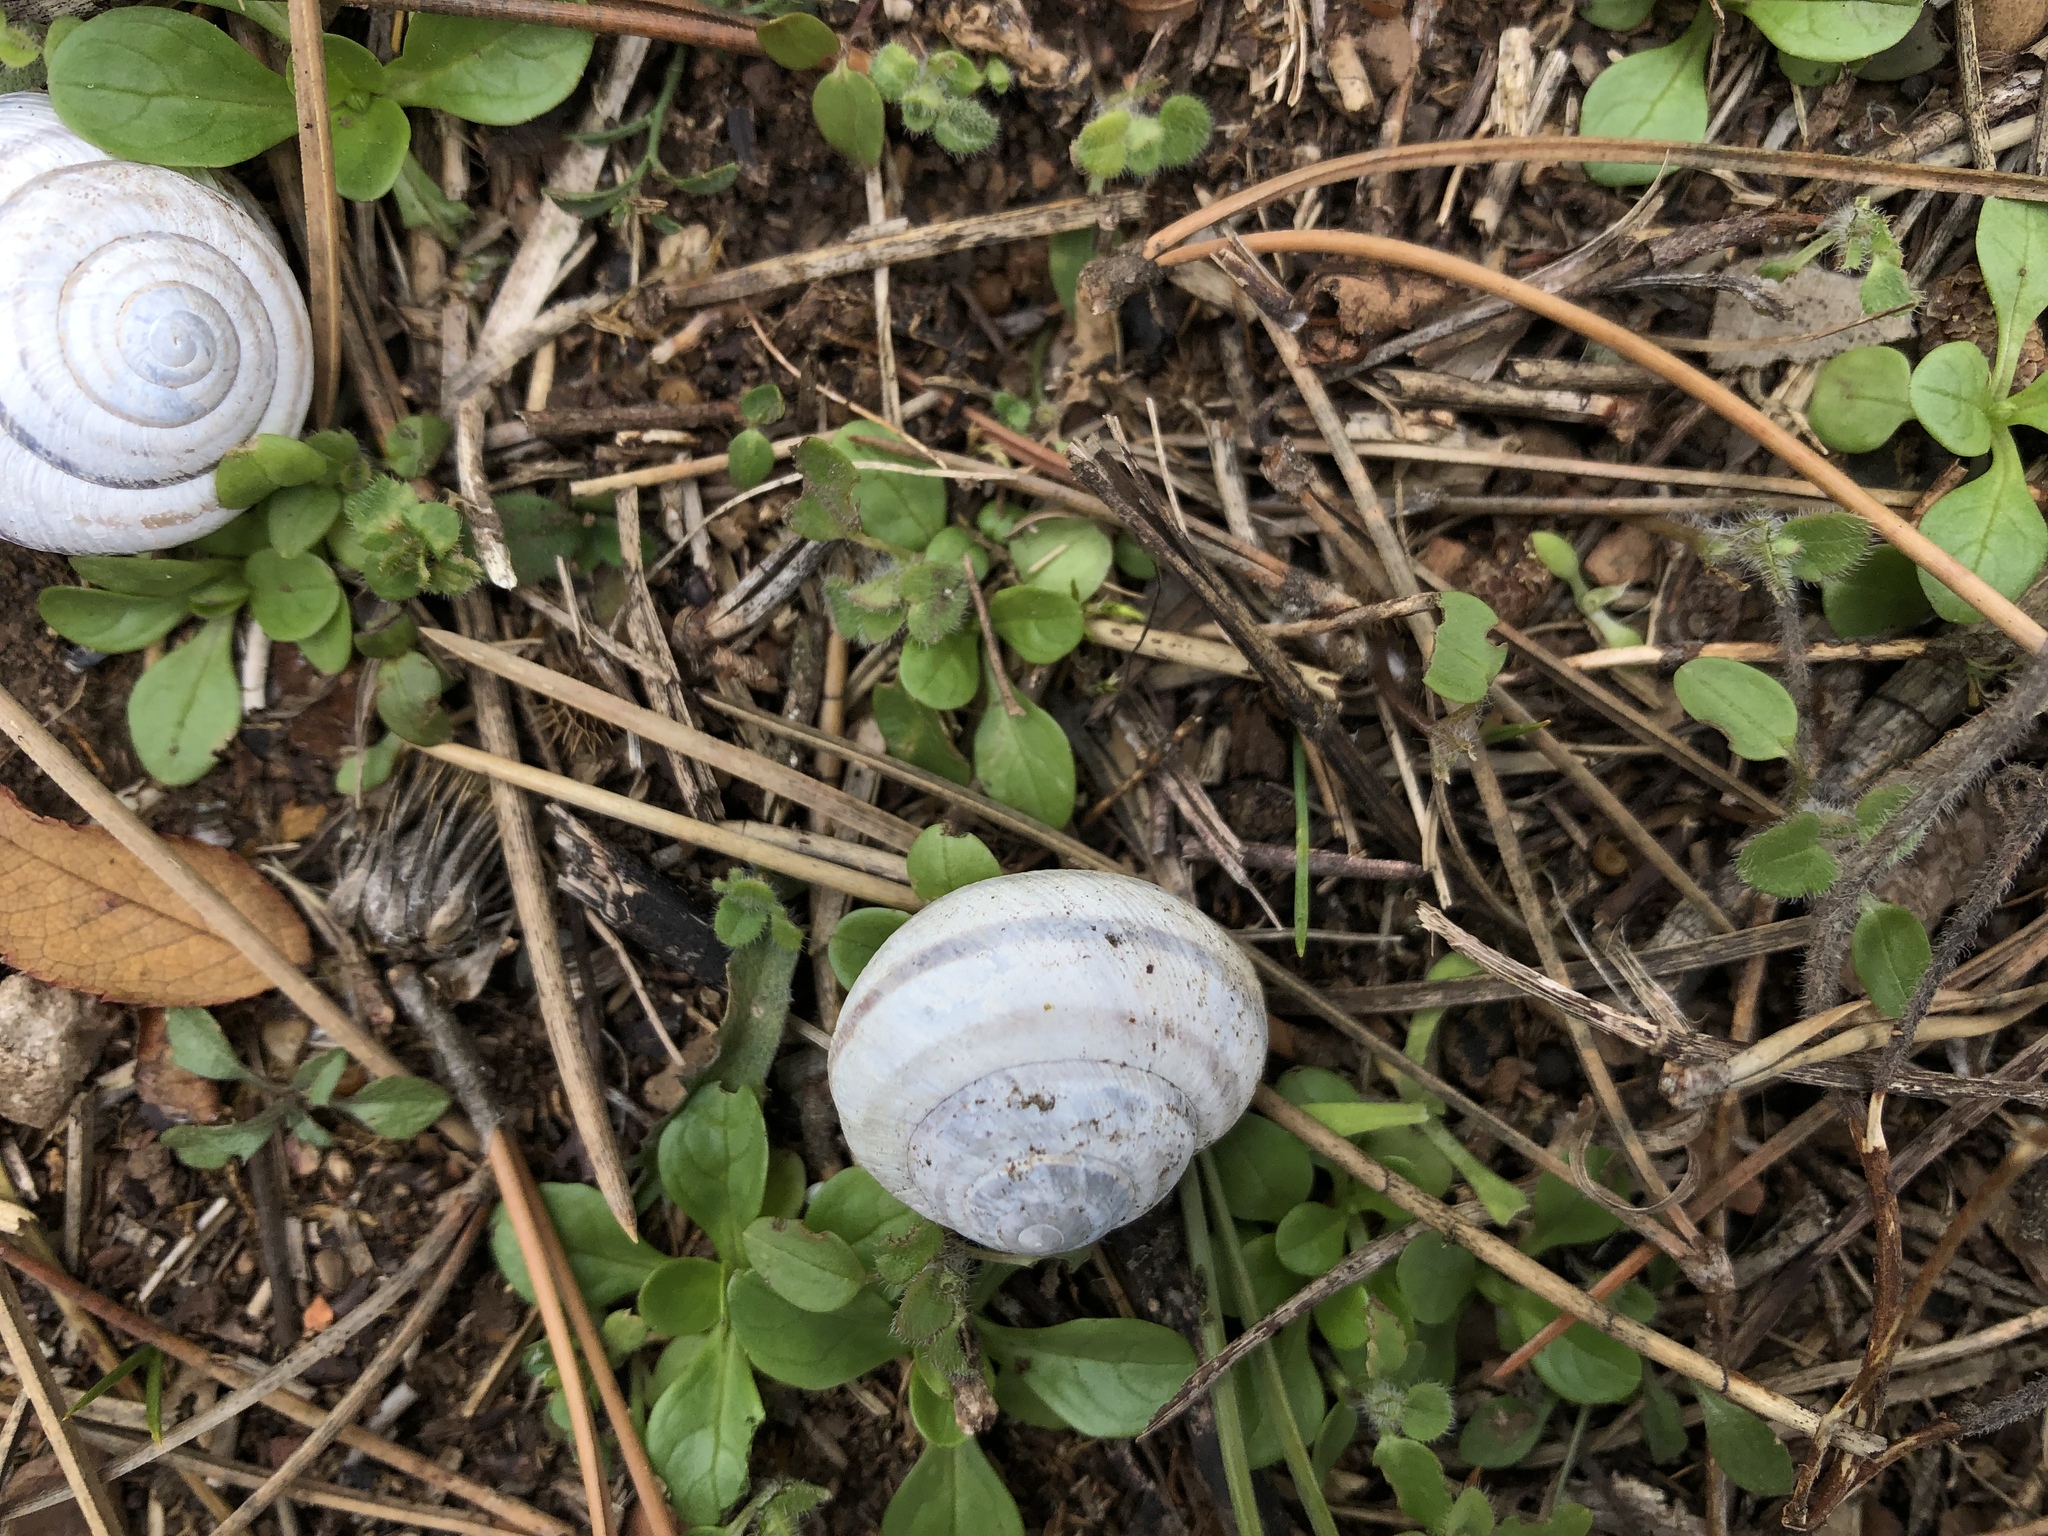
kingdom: Animalia
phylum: Mollusca
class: Gastropoda
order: Stylommatophora
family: Helicidae
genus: Caucasotachea
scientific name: Caucasotachea vindobonensis
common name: European helicid land snail
